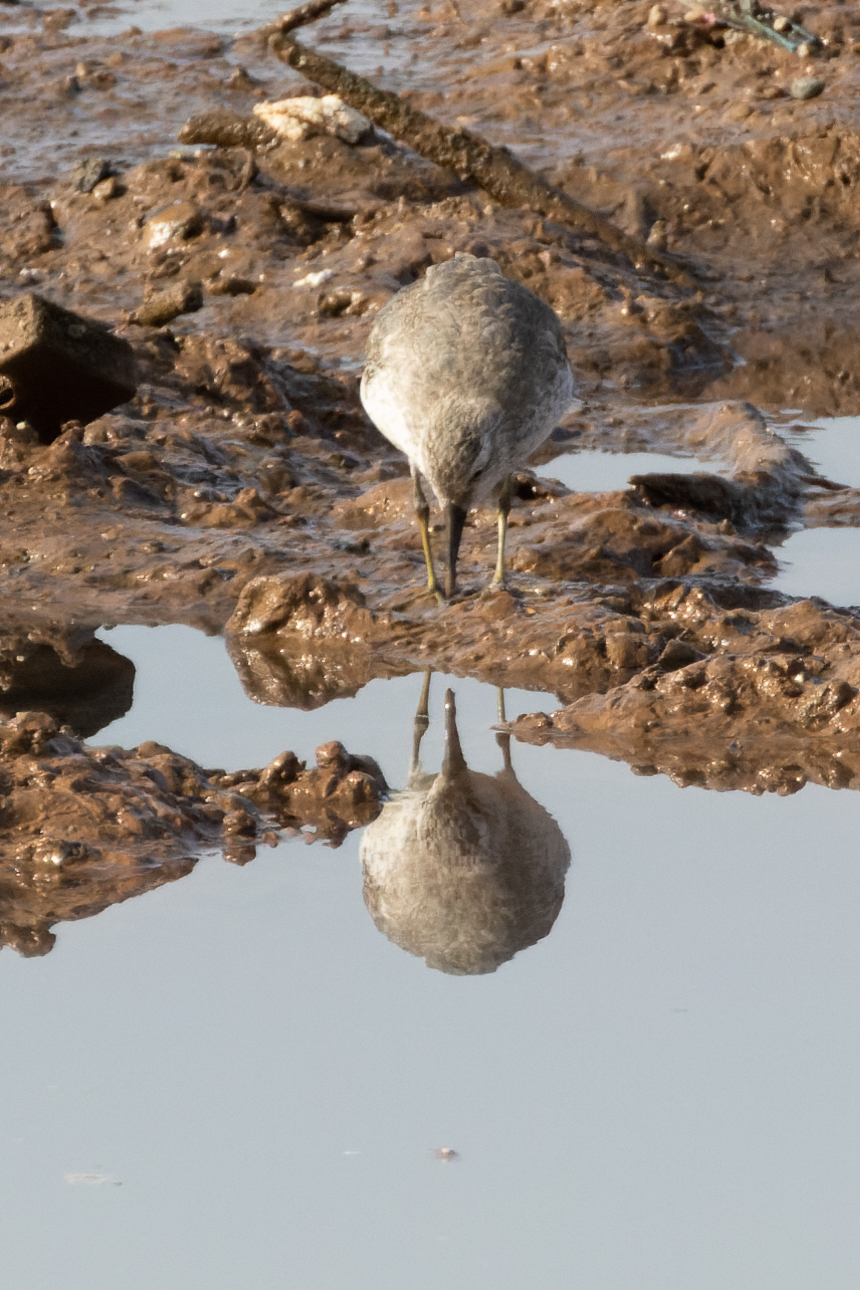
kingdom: Animalia
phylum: Chordata
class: Aves
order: Charadriiformes
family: Scolopacidae
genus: Calidris
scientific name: Calidris canutus
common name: Red knot
